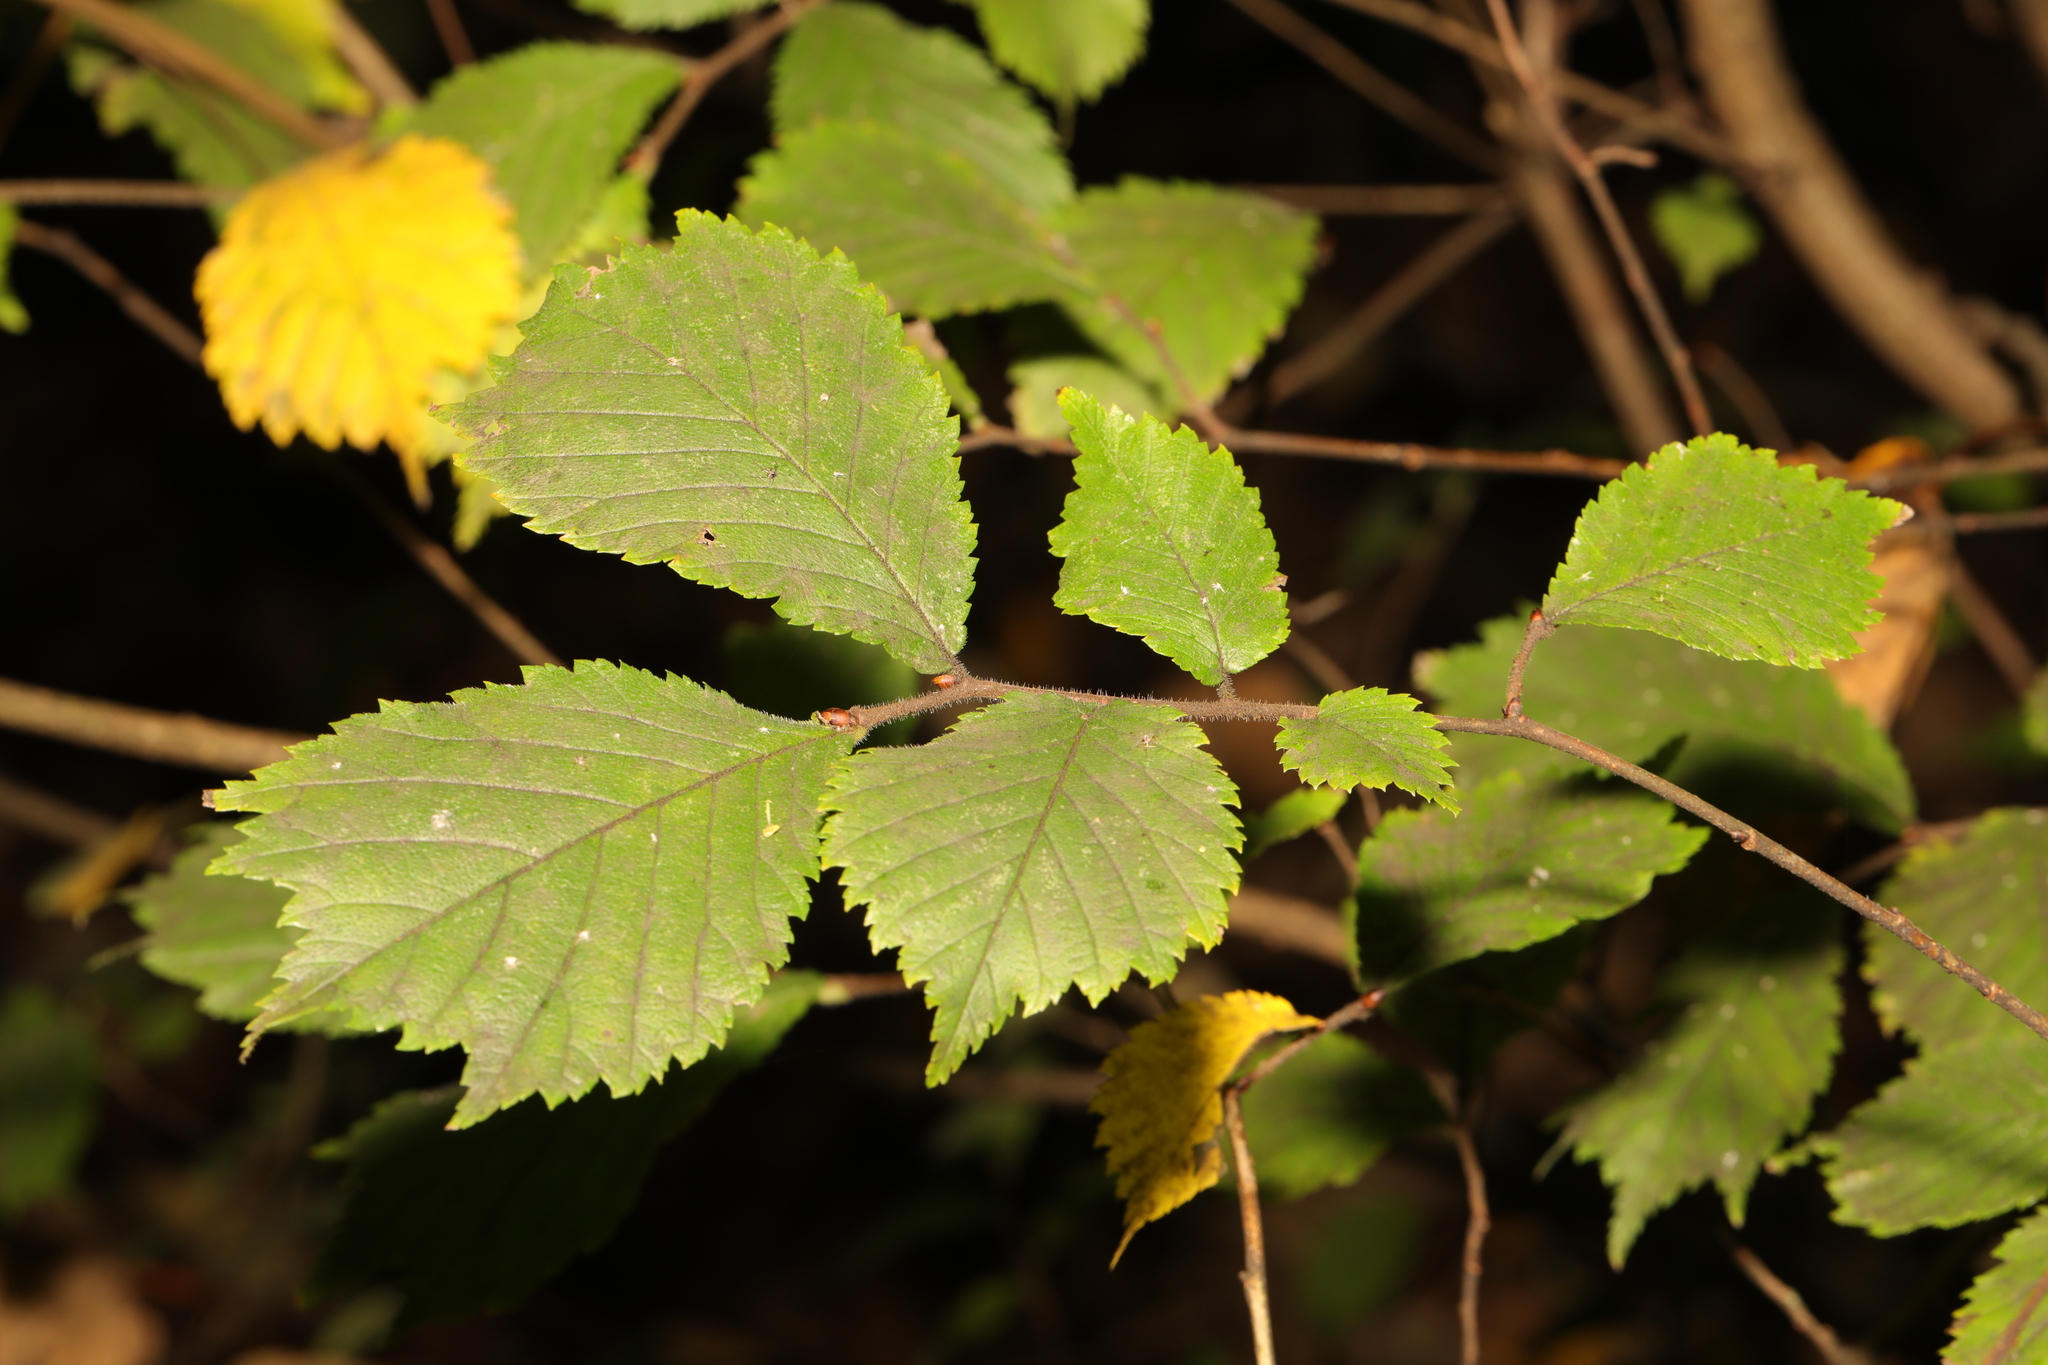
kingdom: Plantae
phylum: Tracheophyta
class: Magnoliopsida
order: Rosales
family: Ulmaceae
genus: Ulmus
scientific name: Ulmus glabra
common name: Wych elm
